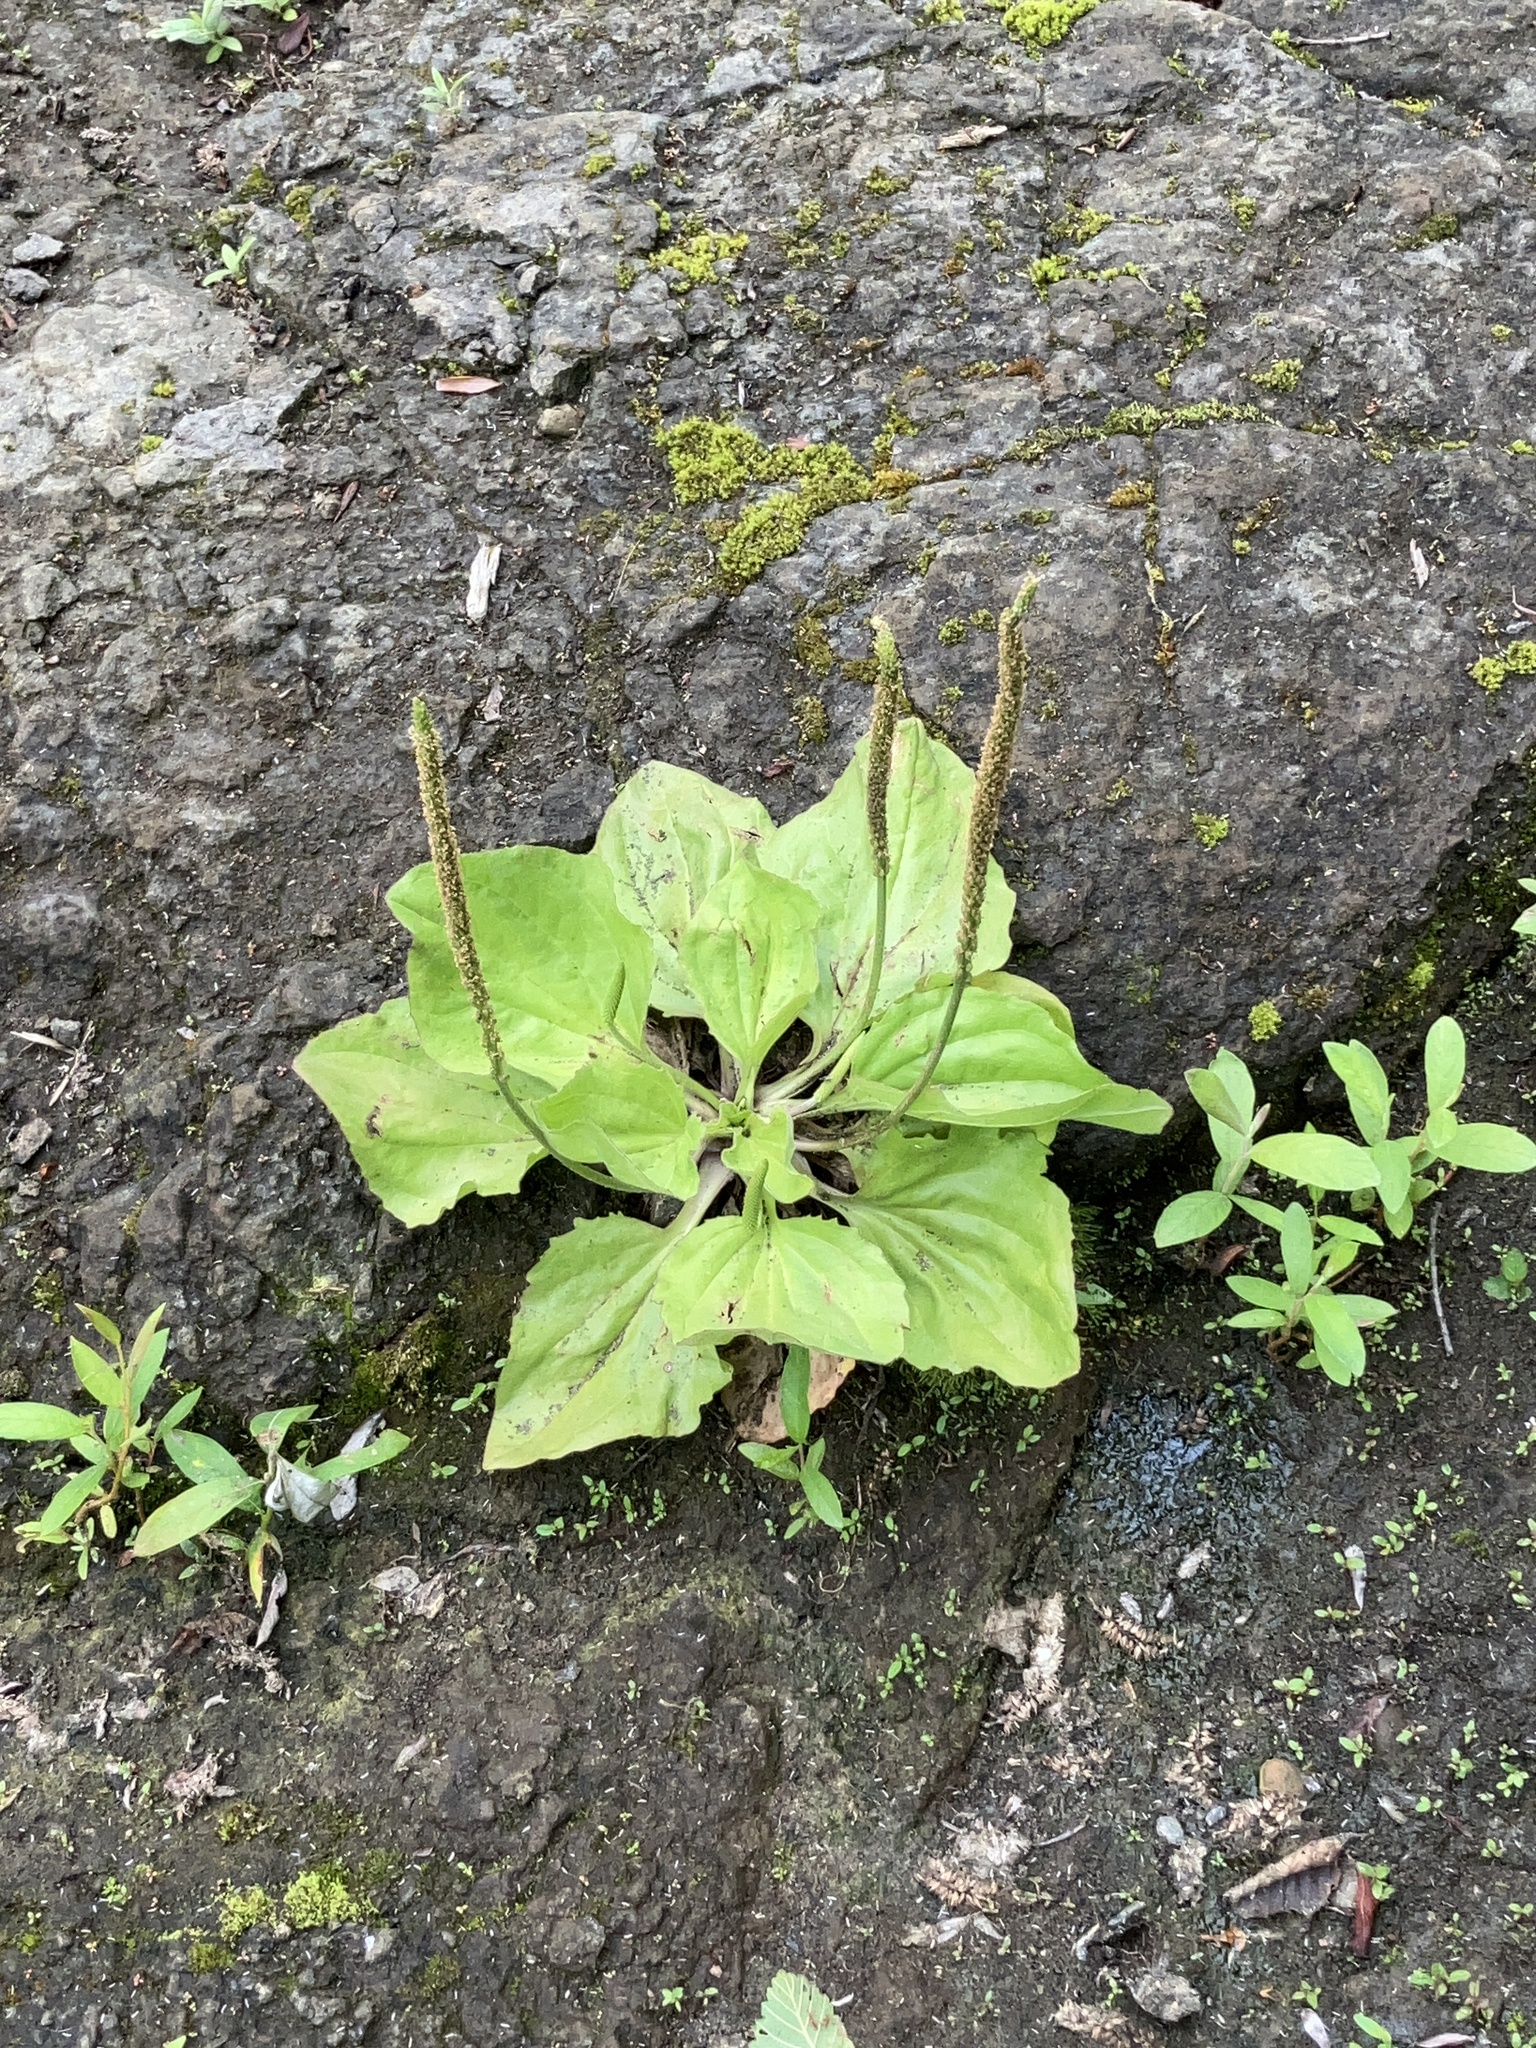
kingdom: Plantae
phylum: Tracheophyta
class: Magnoliopsida
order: Lamiales
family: Plantaginaceae
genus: Plantago
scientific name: Plantago major
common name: Common plantain
